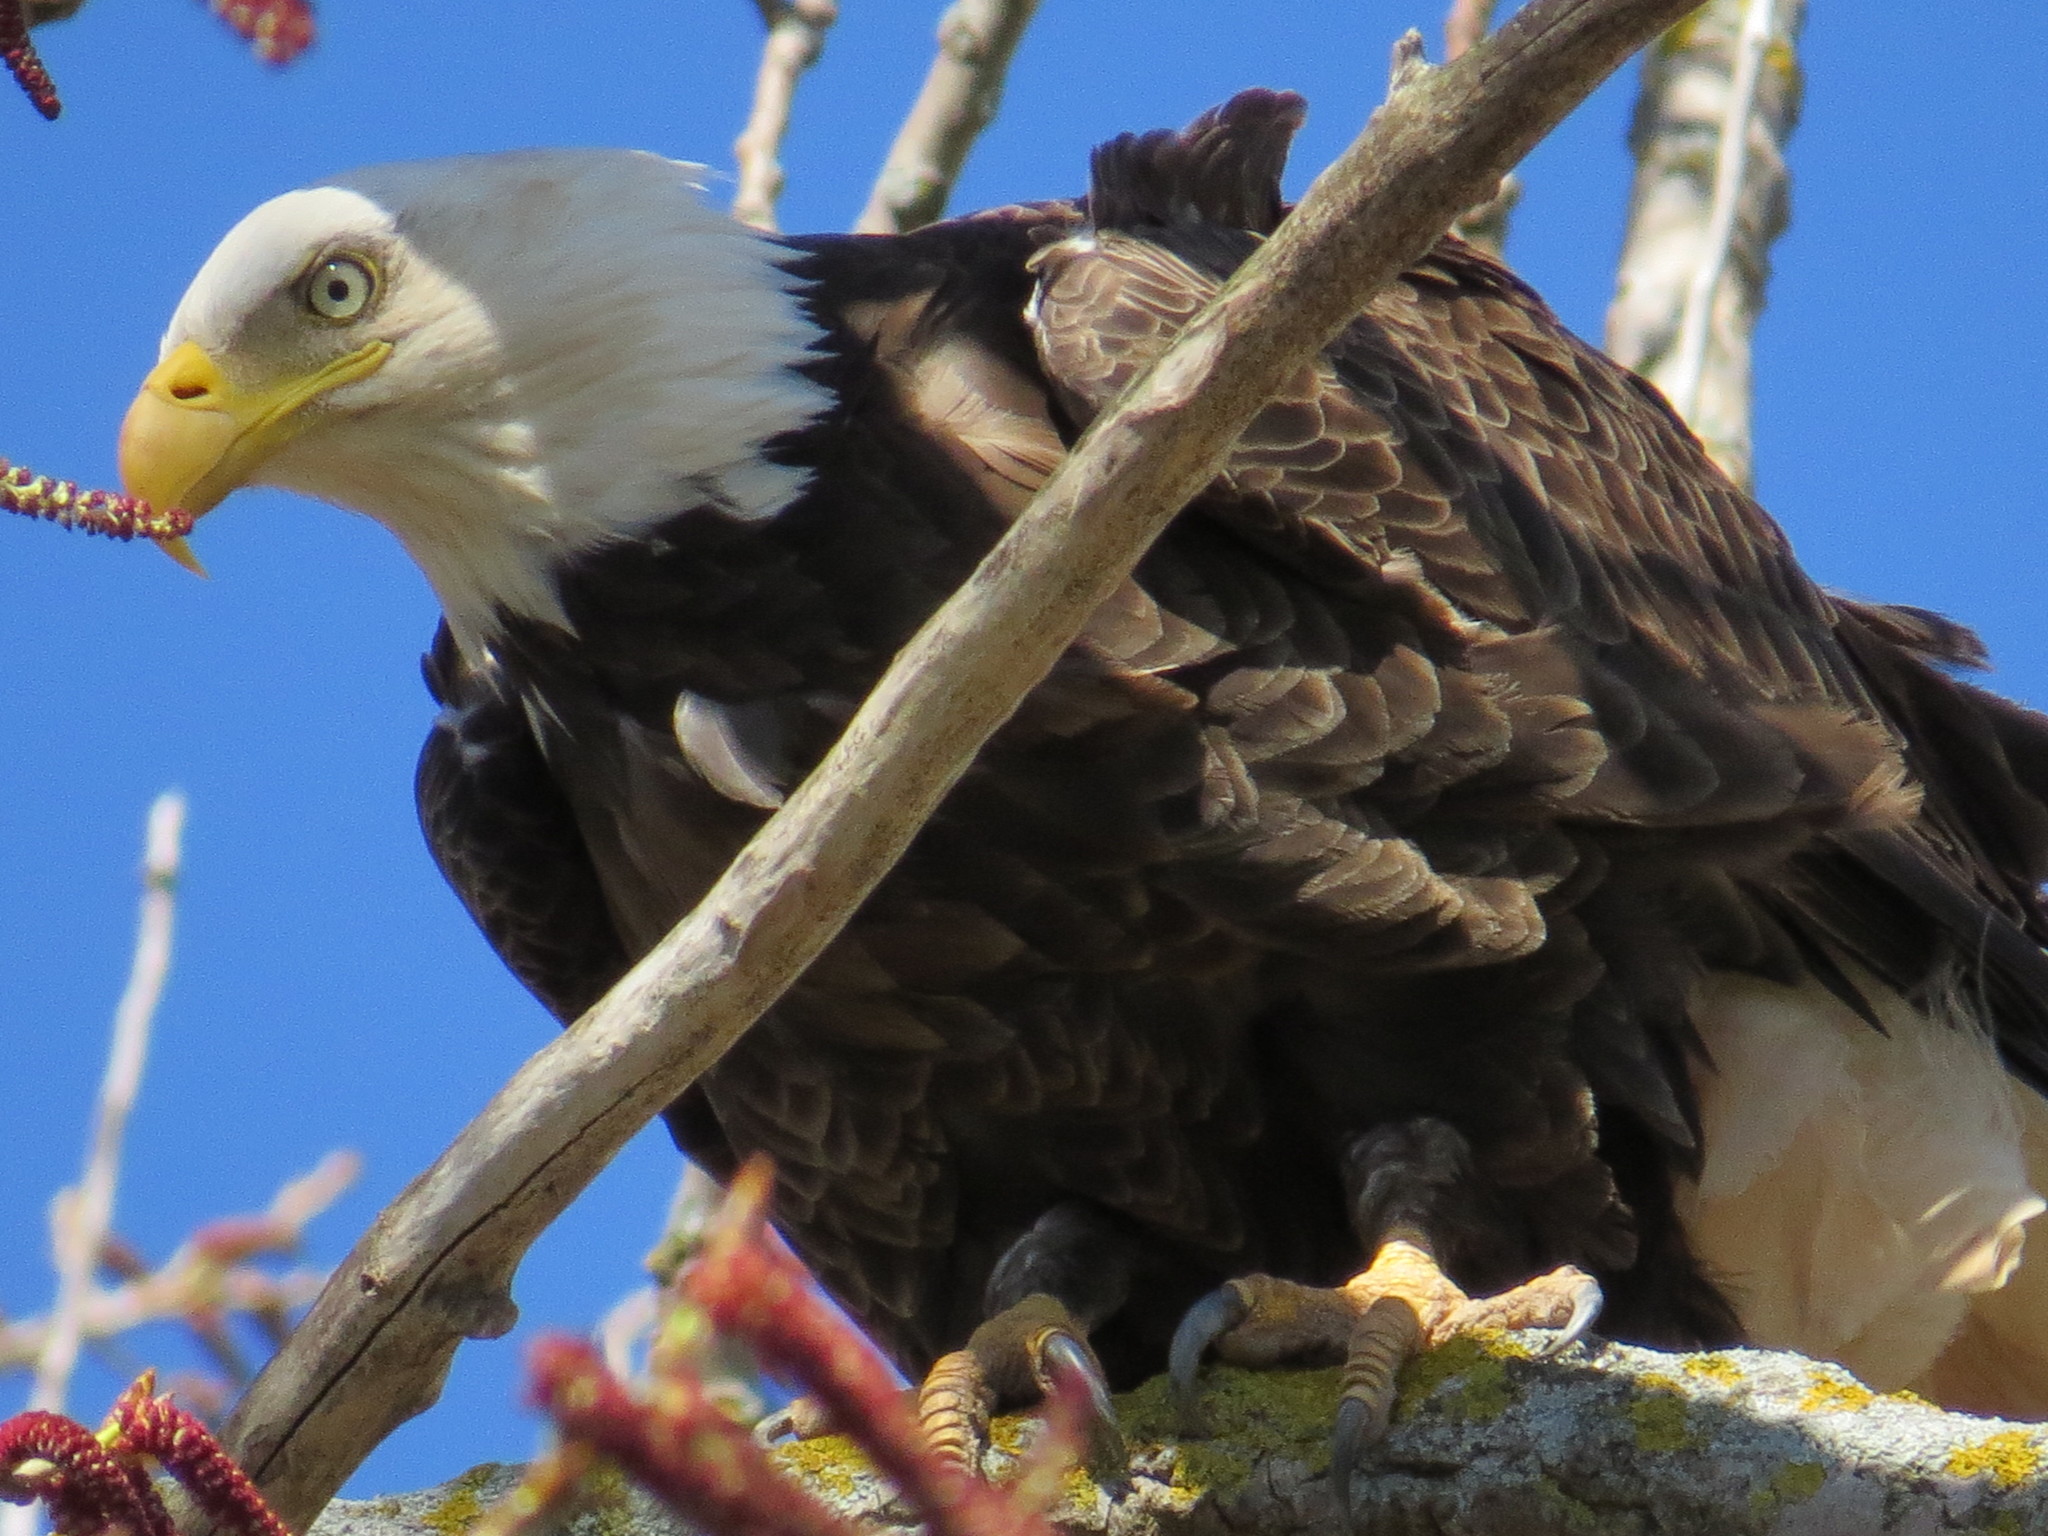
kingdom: Animalia
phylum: Chordata
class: Aves
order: Accipitriformes
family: Accipitridae
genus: Haliaeetus
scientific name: Haliaeetus leucocephalus
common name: Bald eagle
